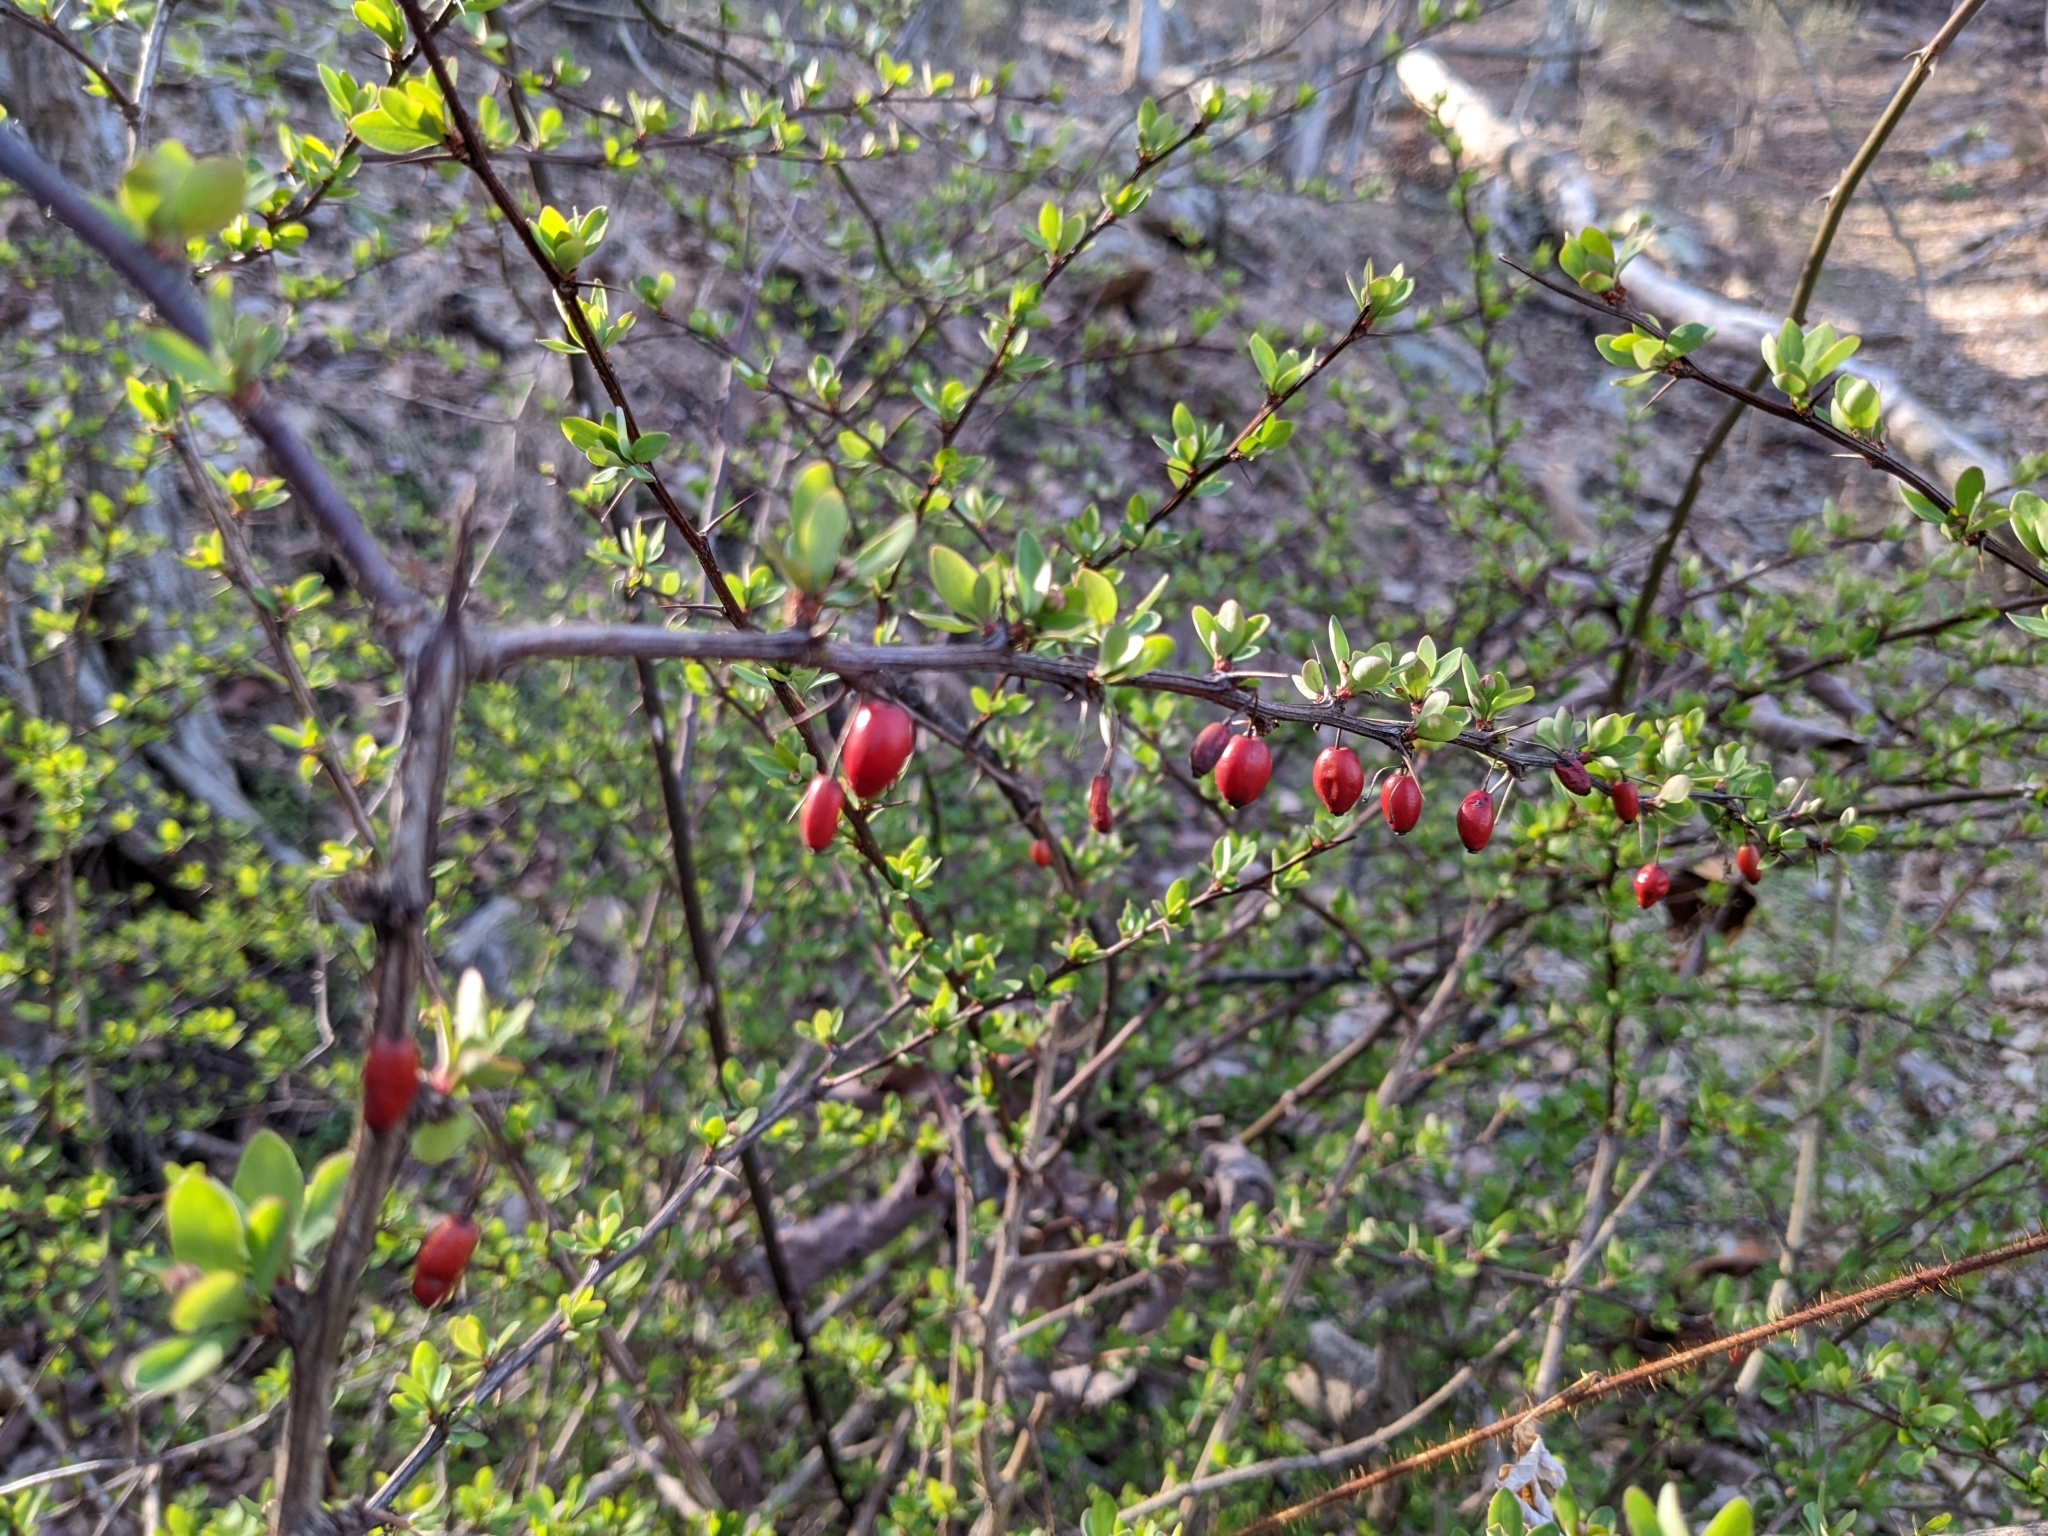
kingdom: Plantae
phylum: Tracheophyta
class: Magnoliopsida
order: Ranunculales
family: Berberidaceae
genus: Berberis
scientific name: Berberis thunbergii
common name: Japanese barberry
